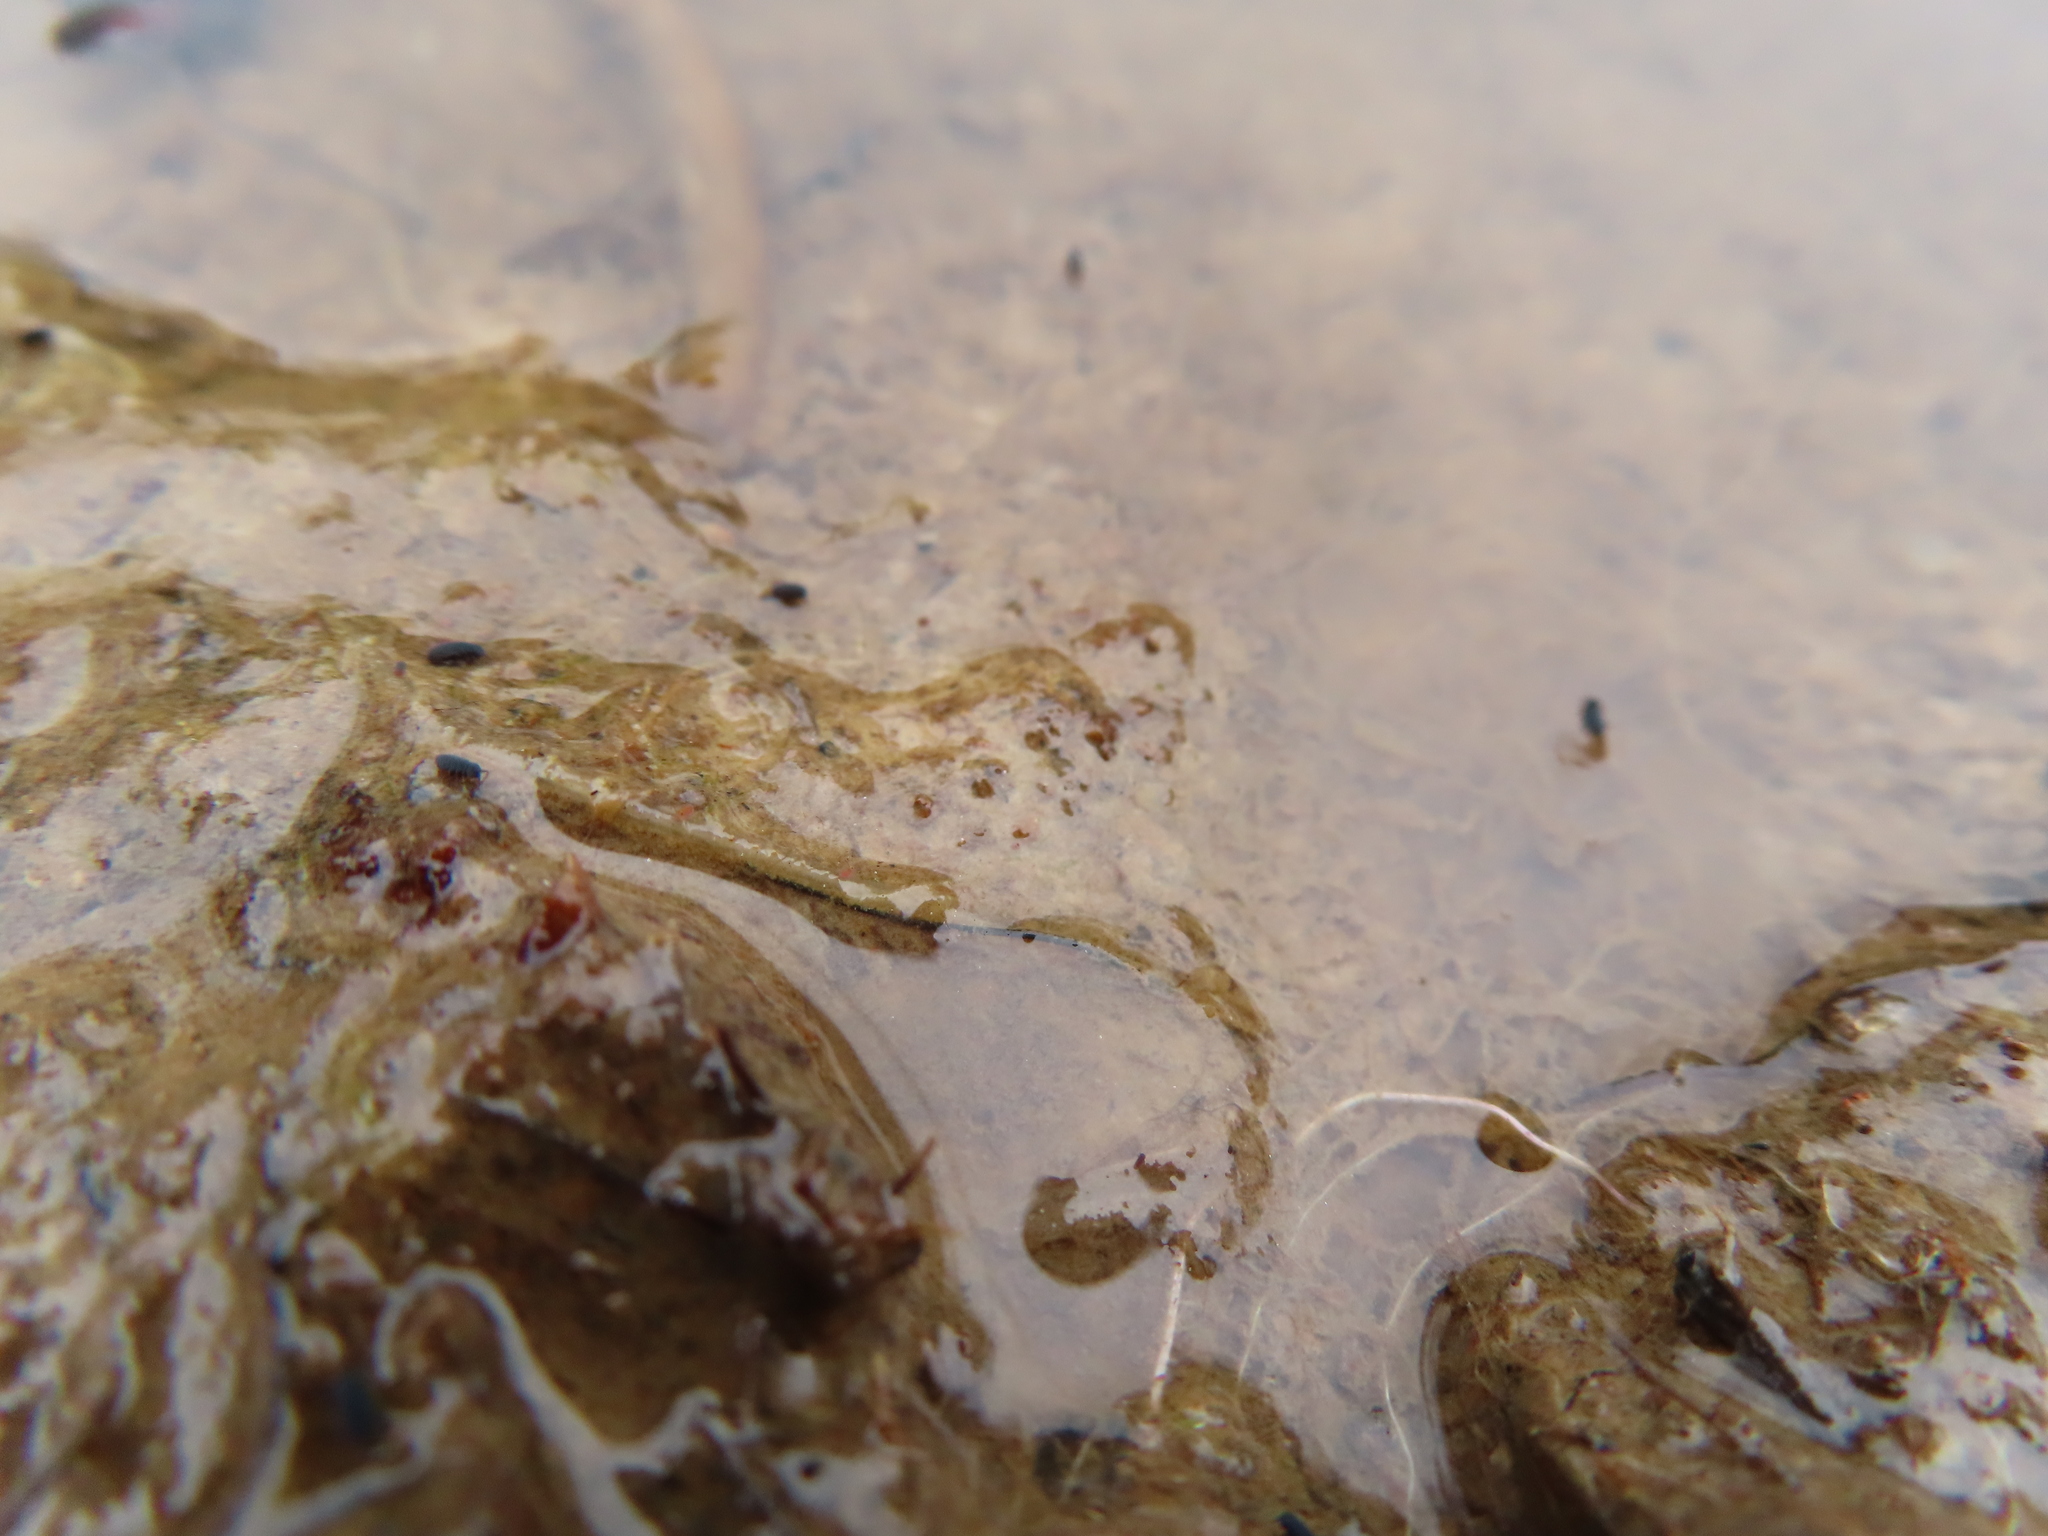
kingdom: Animalia
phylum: Arthropoda
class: Collembola
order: Poduromorpha
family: Poduridae
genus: Podura
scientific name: Podura aquatica
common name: Water springtail
